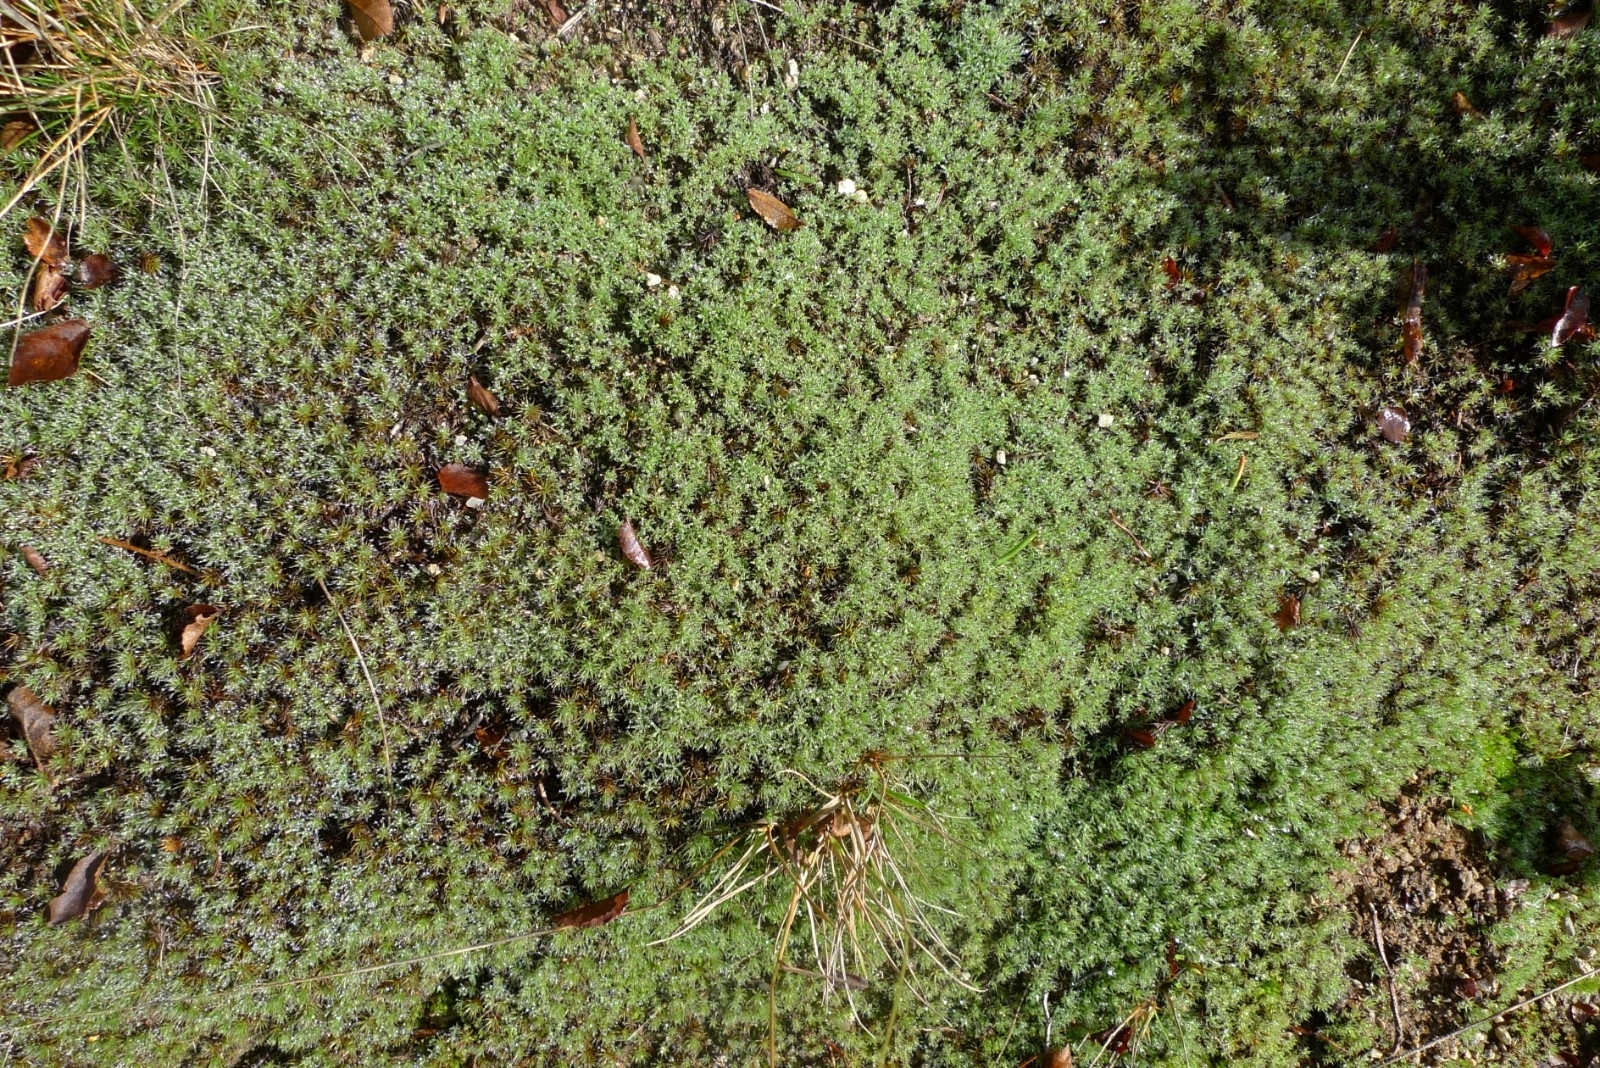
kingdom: Plantae
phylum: Bryophyta
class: Polytrichopsida
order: Polytrichales
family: Polytrichaceae
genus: Polytrichum
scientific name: Polytrichum piliferum
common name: Bristly haircap
